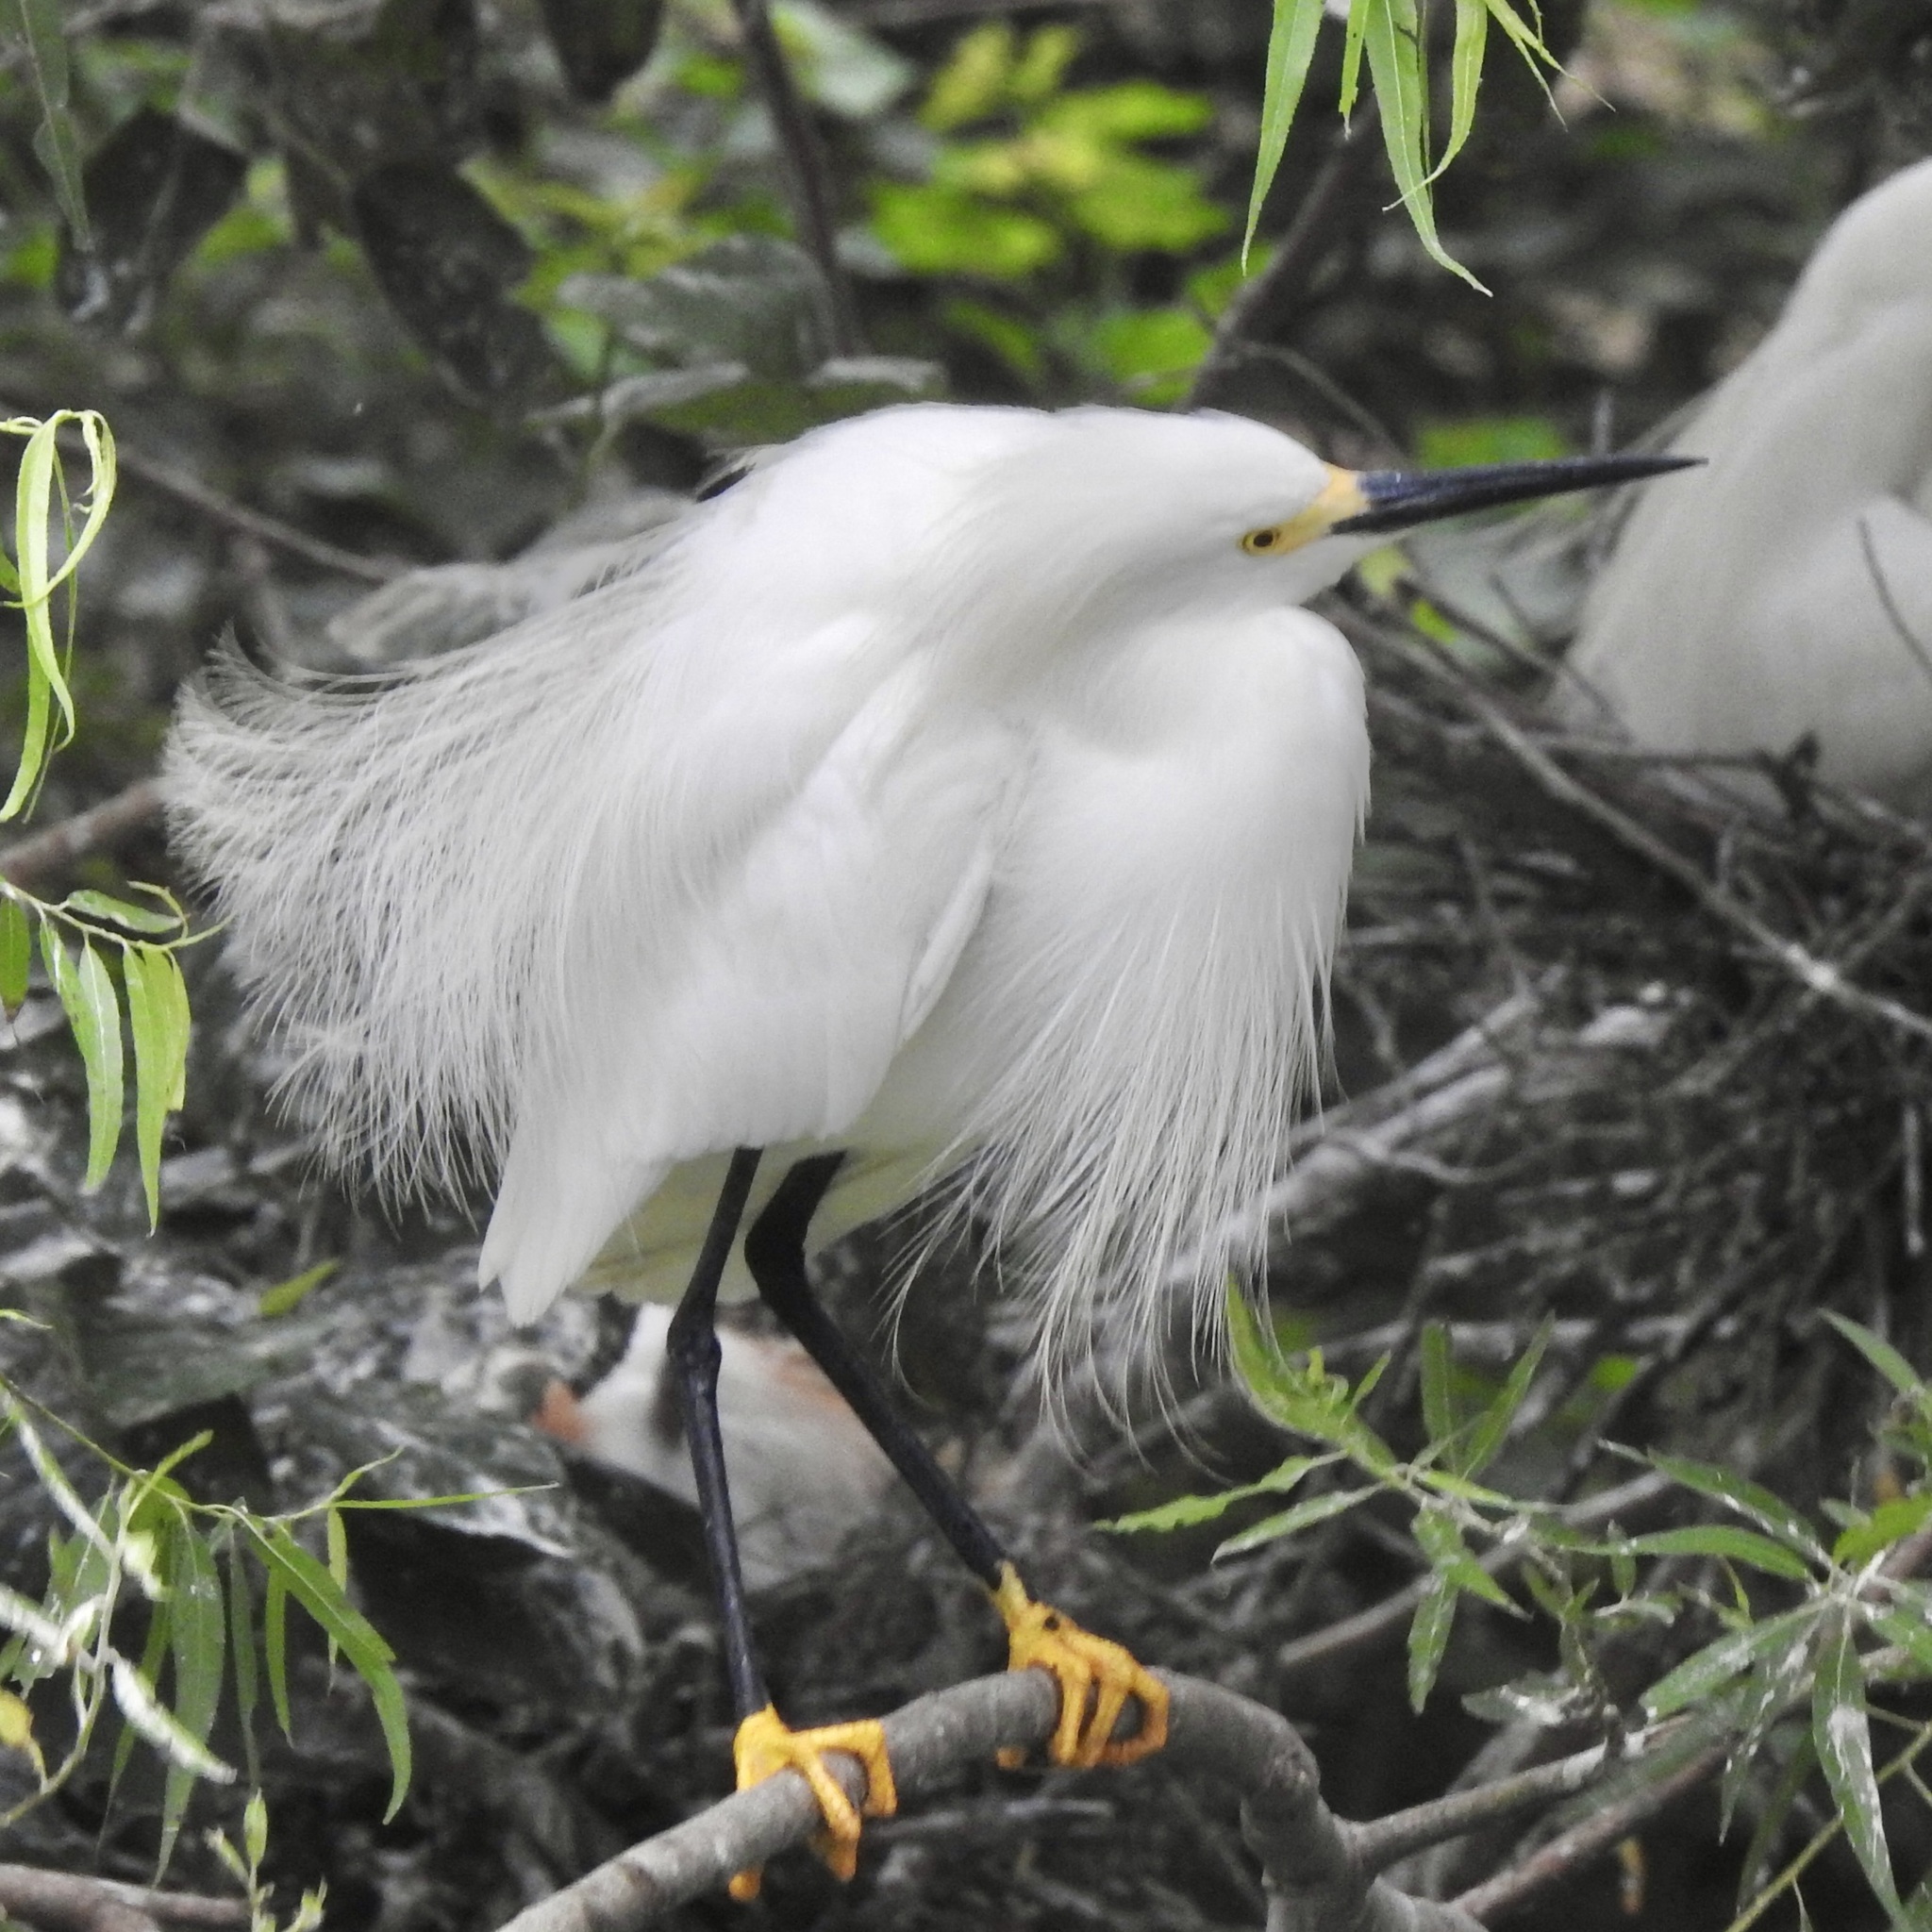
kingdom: Animalia
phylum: Chordata
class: Aves
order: Pelecaniformes
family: Ardeidae
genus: Egretta
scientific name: Egretta thula
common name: Snowy egret
